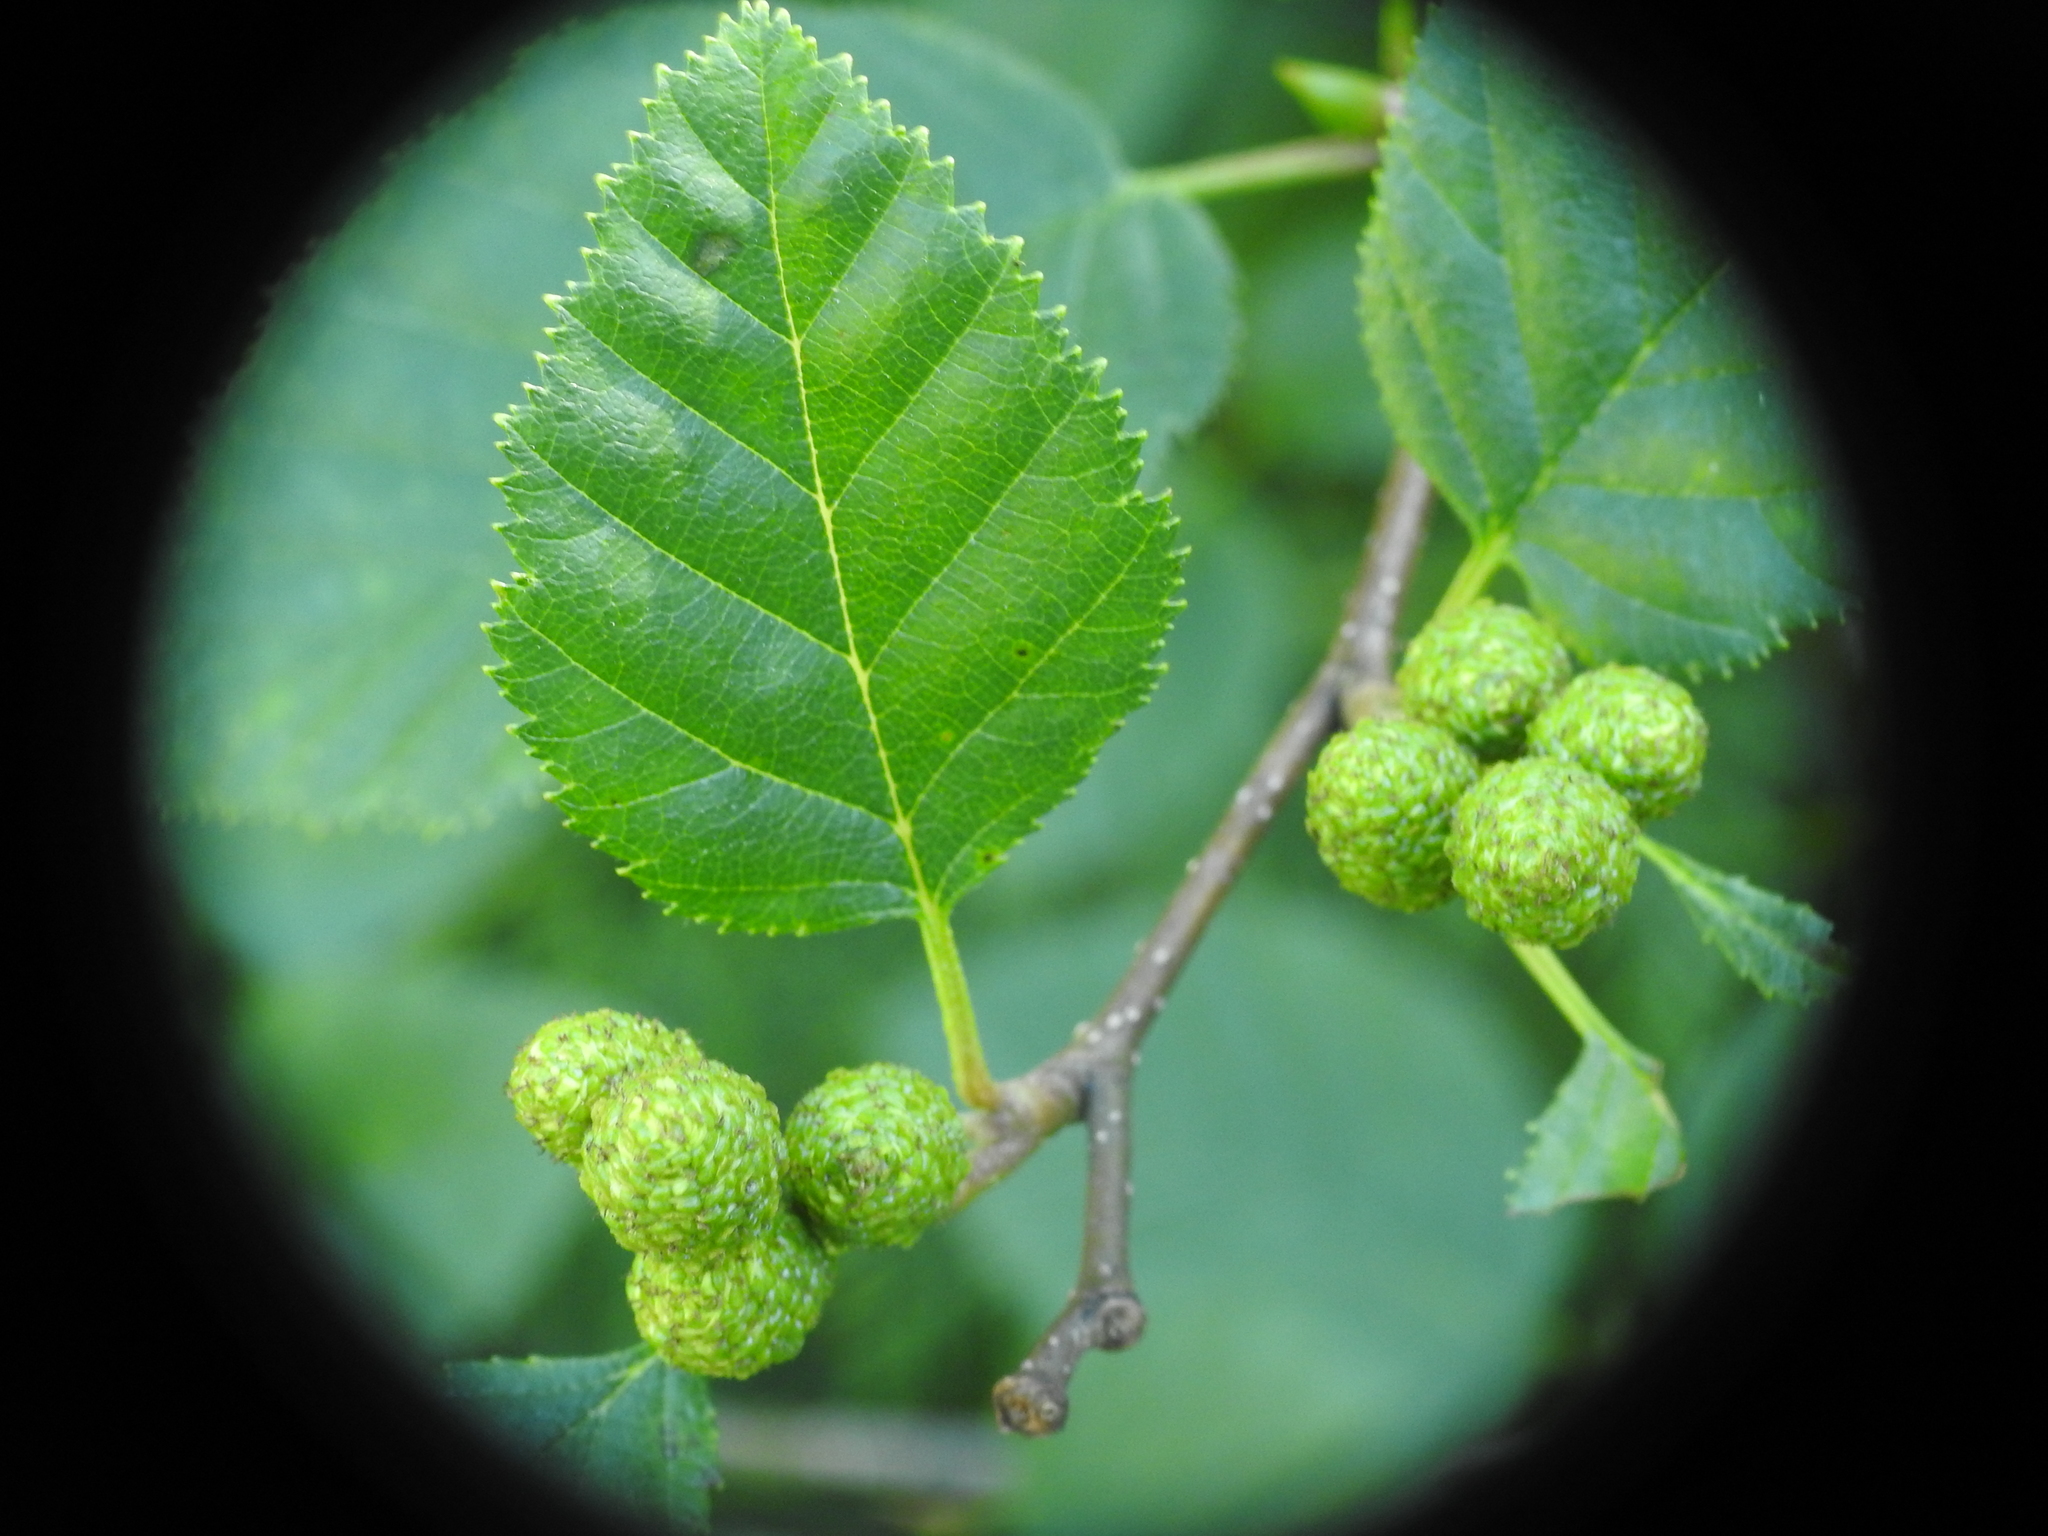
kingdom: Plantae
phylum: Tracheophyta
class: Magnoliopsida
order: Fagales
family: Betulaceae
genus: Alnus
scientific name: Alnus alnobetula
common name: Green alder
